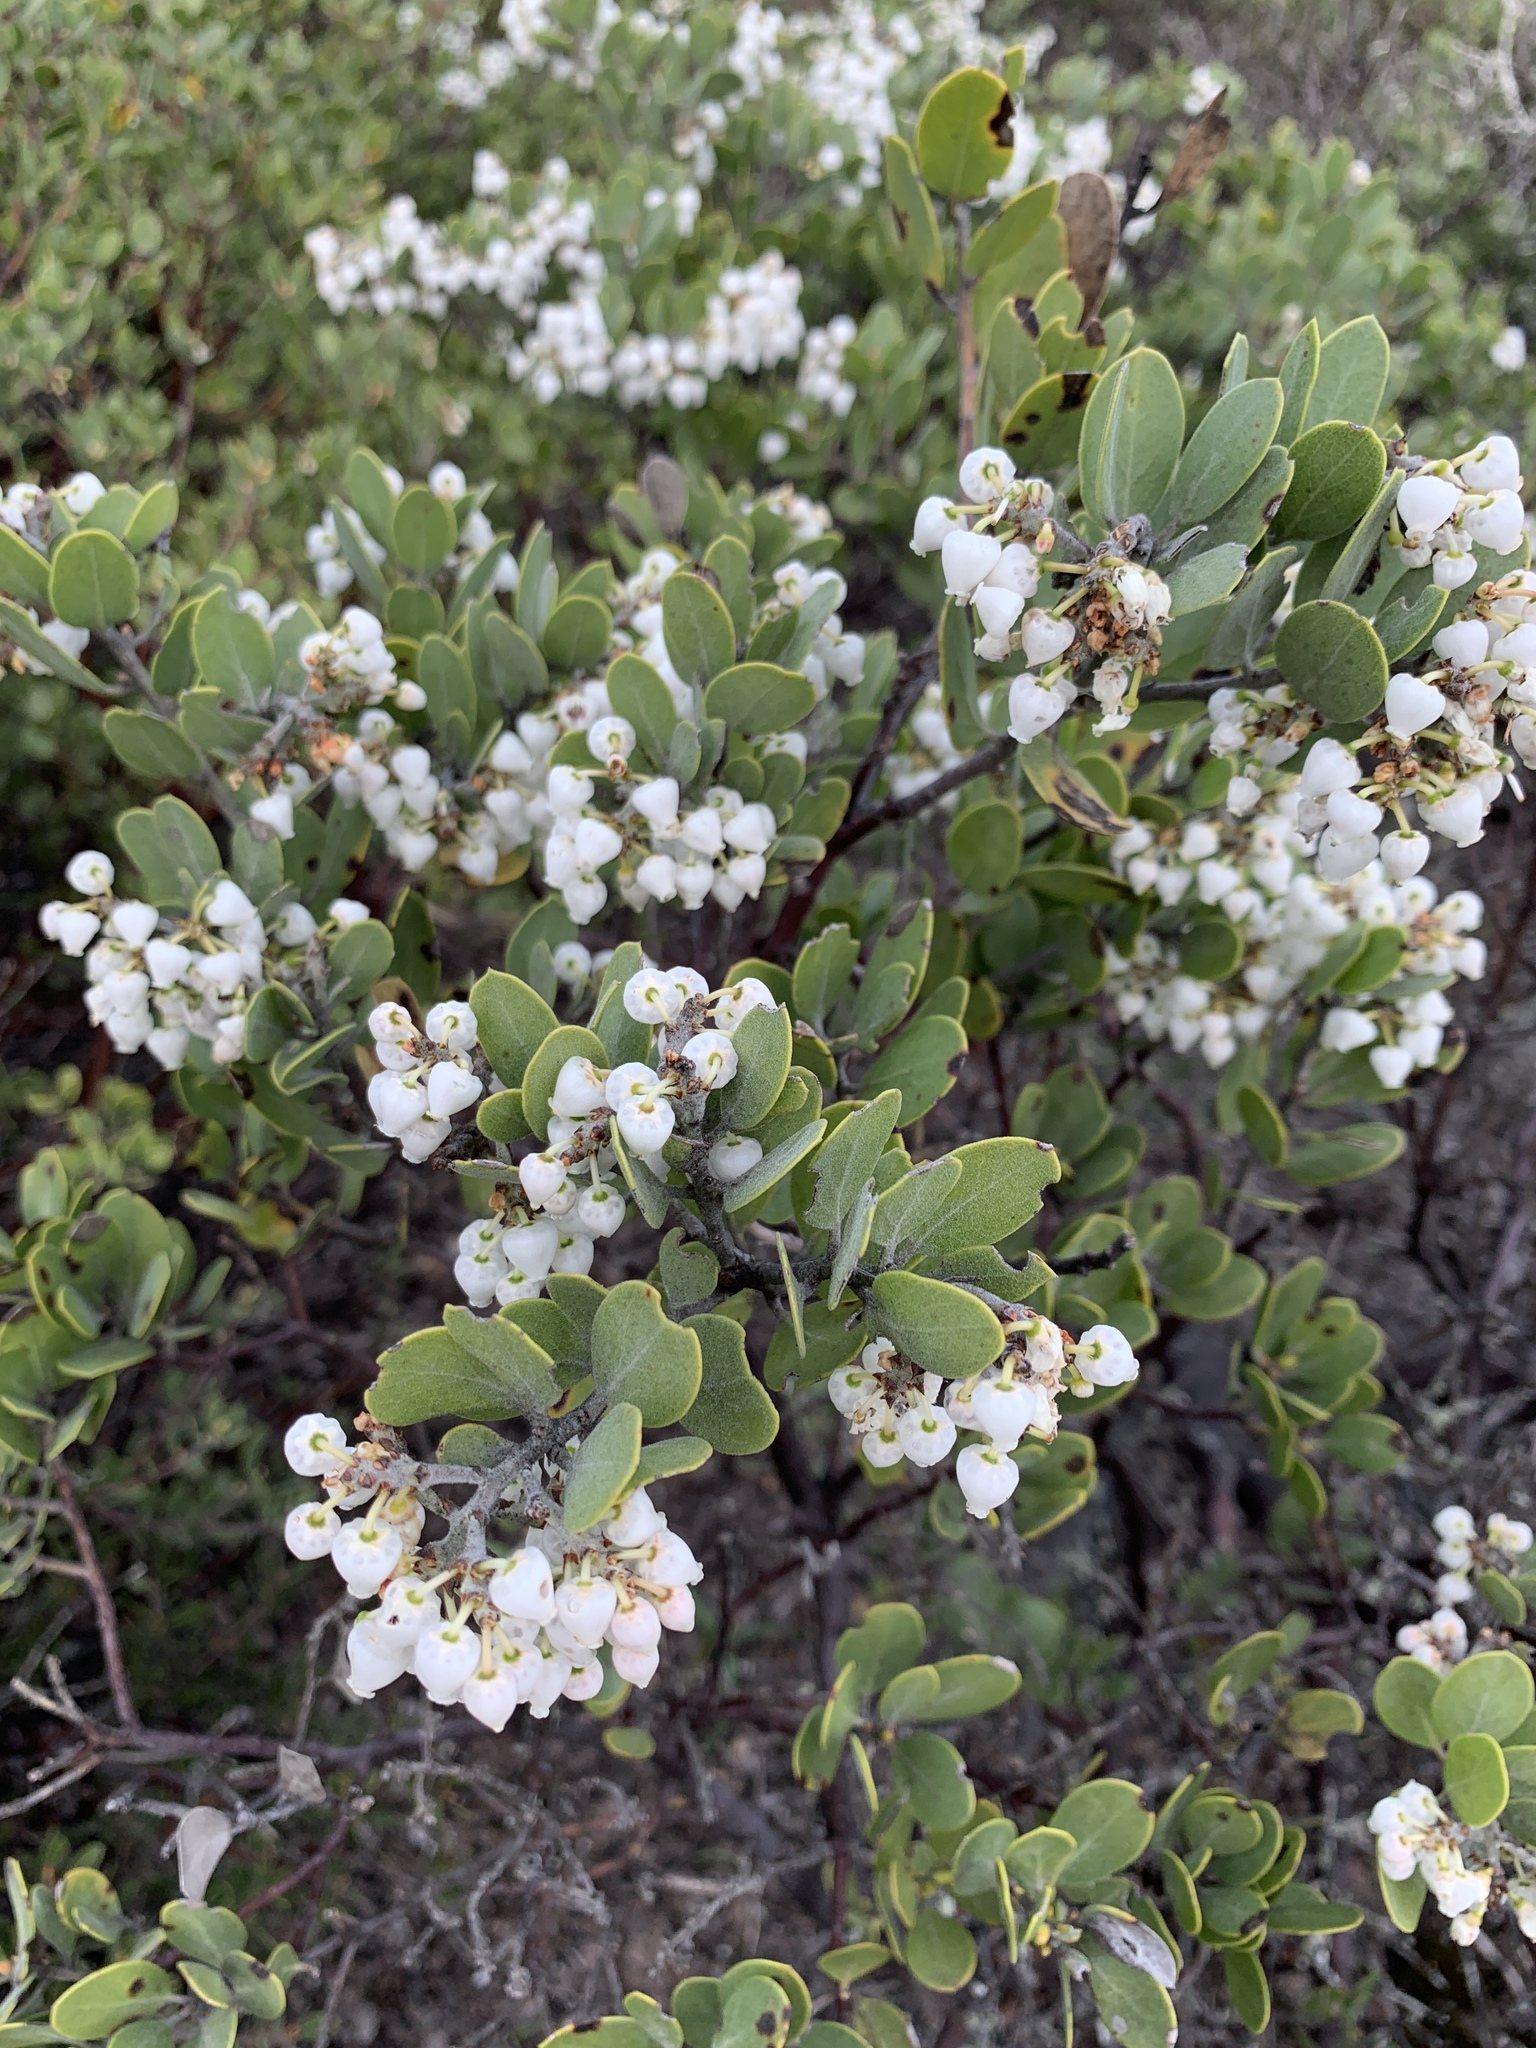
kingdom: Plantae
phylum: Tracheophyta
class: Magnoliopsida
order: Ericales
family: Ericaceae
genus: Arctostaphylos
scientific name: Arctostaphylos montana
